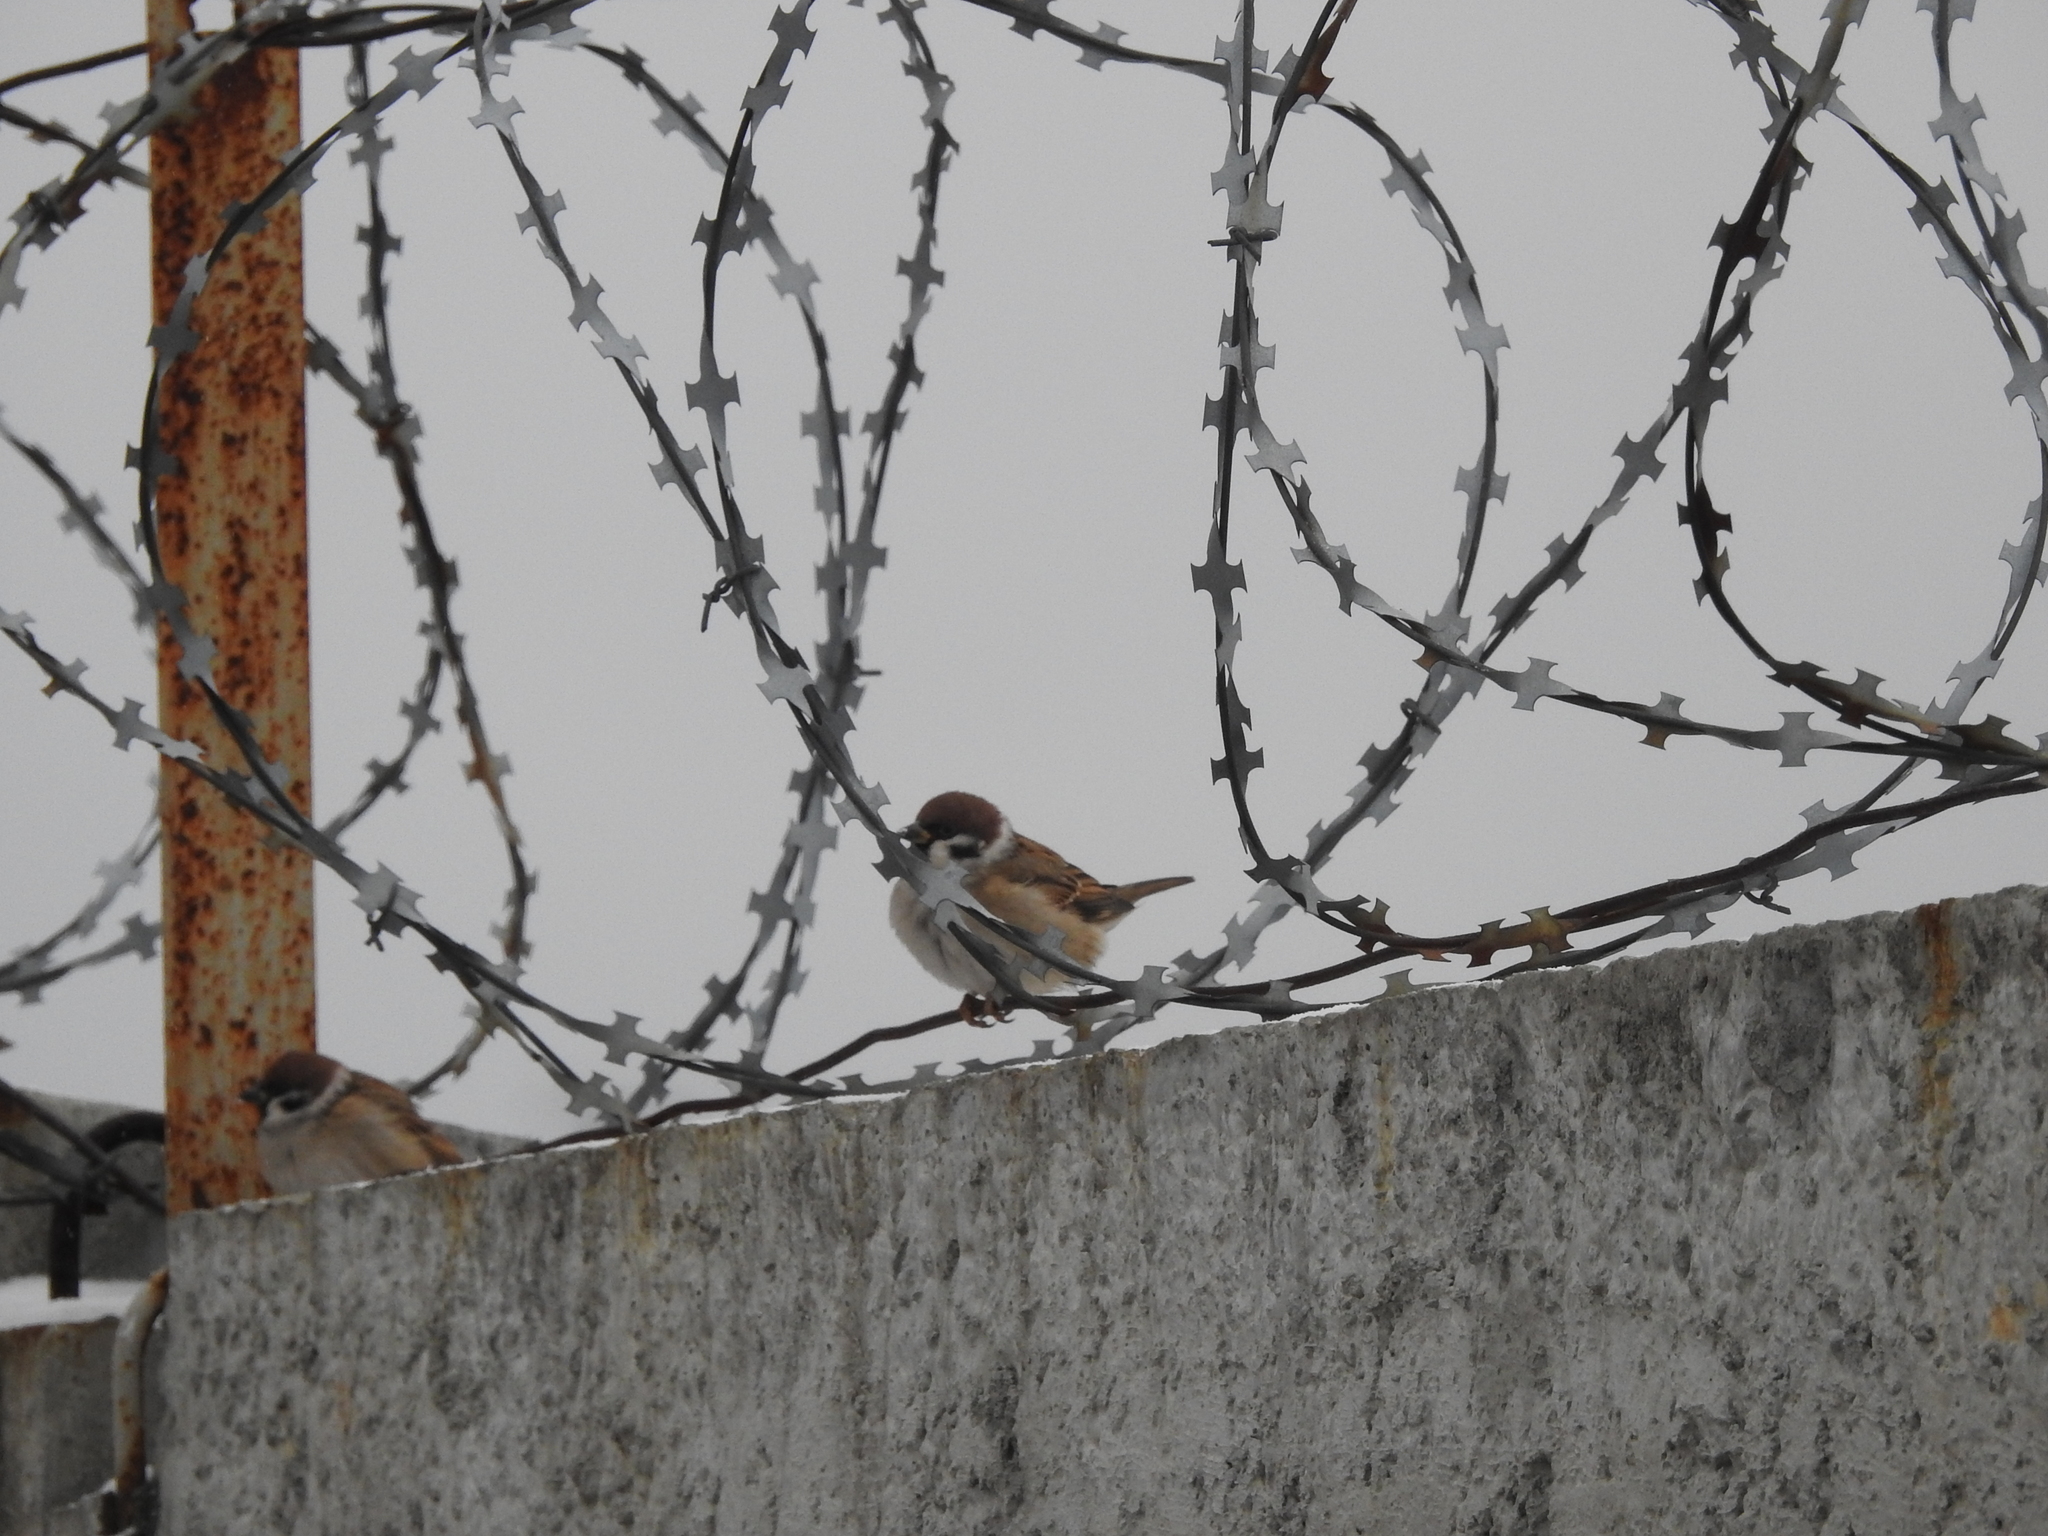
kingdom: Animalia
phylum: Chordata
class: Aves
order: Passeriformes
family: Passeridae
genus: Passer
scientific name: Passer montanus
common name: Eurasian tree sparrow
